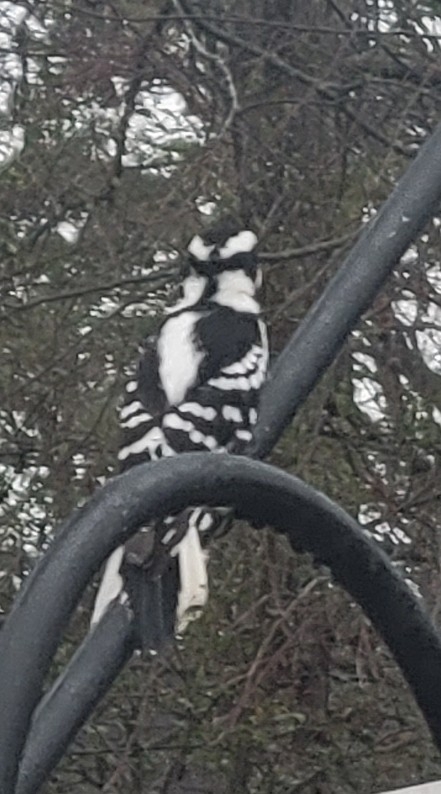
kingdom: Animalia
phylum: Chordata
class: Aves
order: Piciformes
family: Picidae
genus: Dryobates
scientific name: Dryobates pubescens
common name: Downy woodpecker
